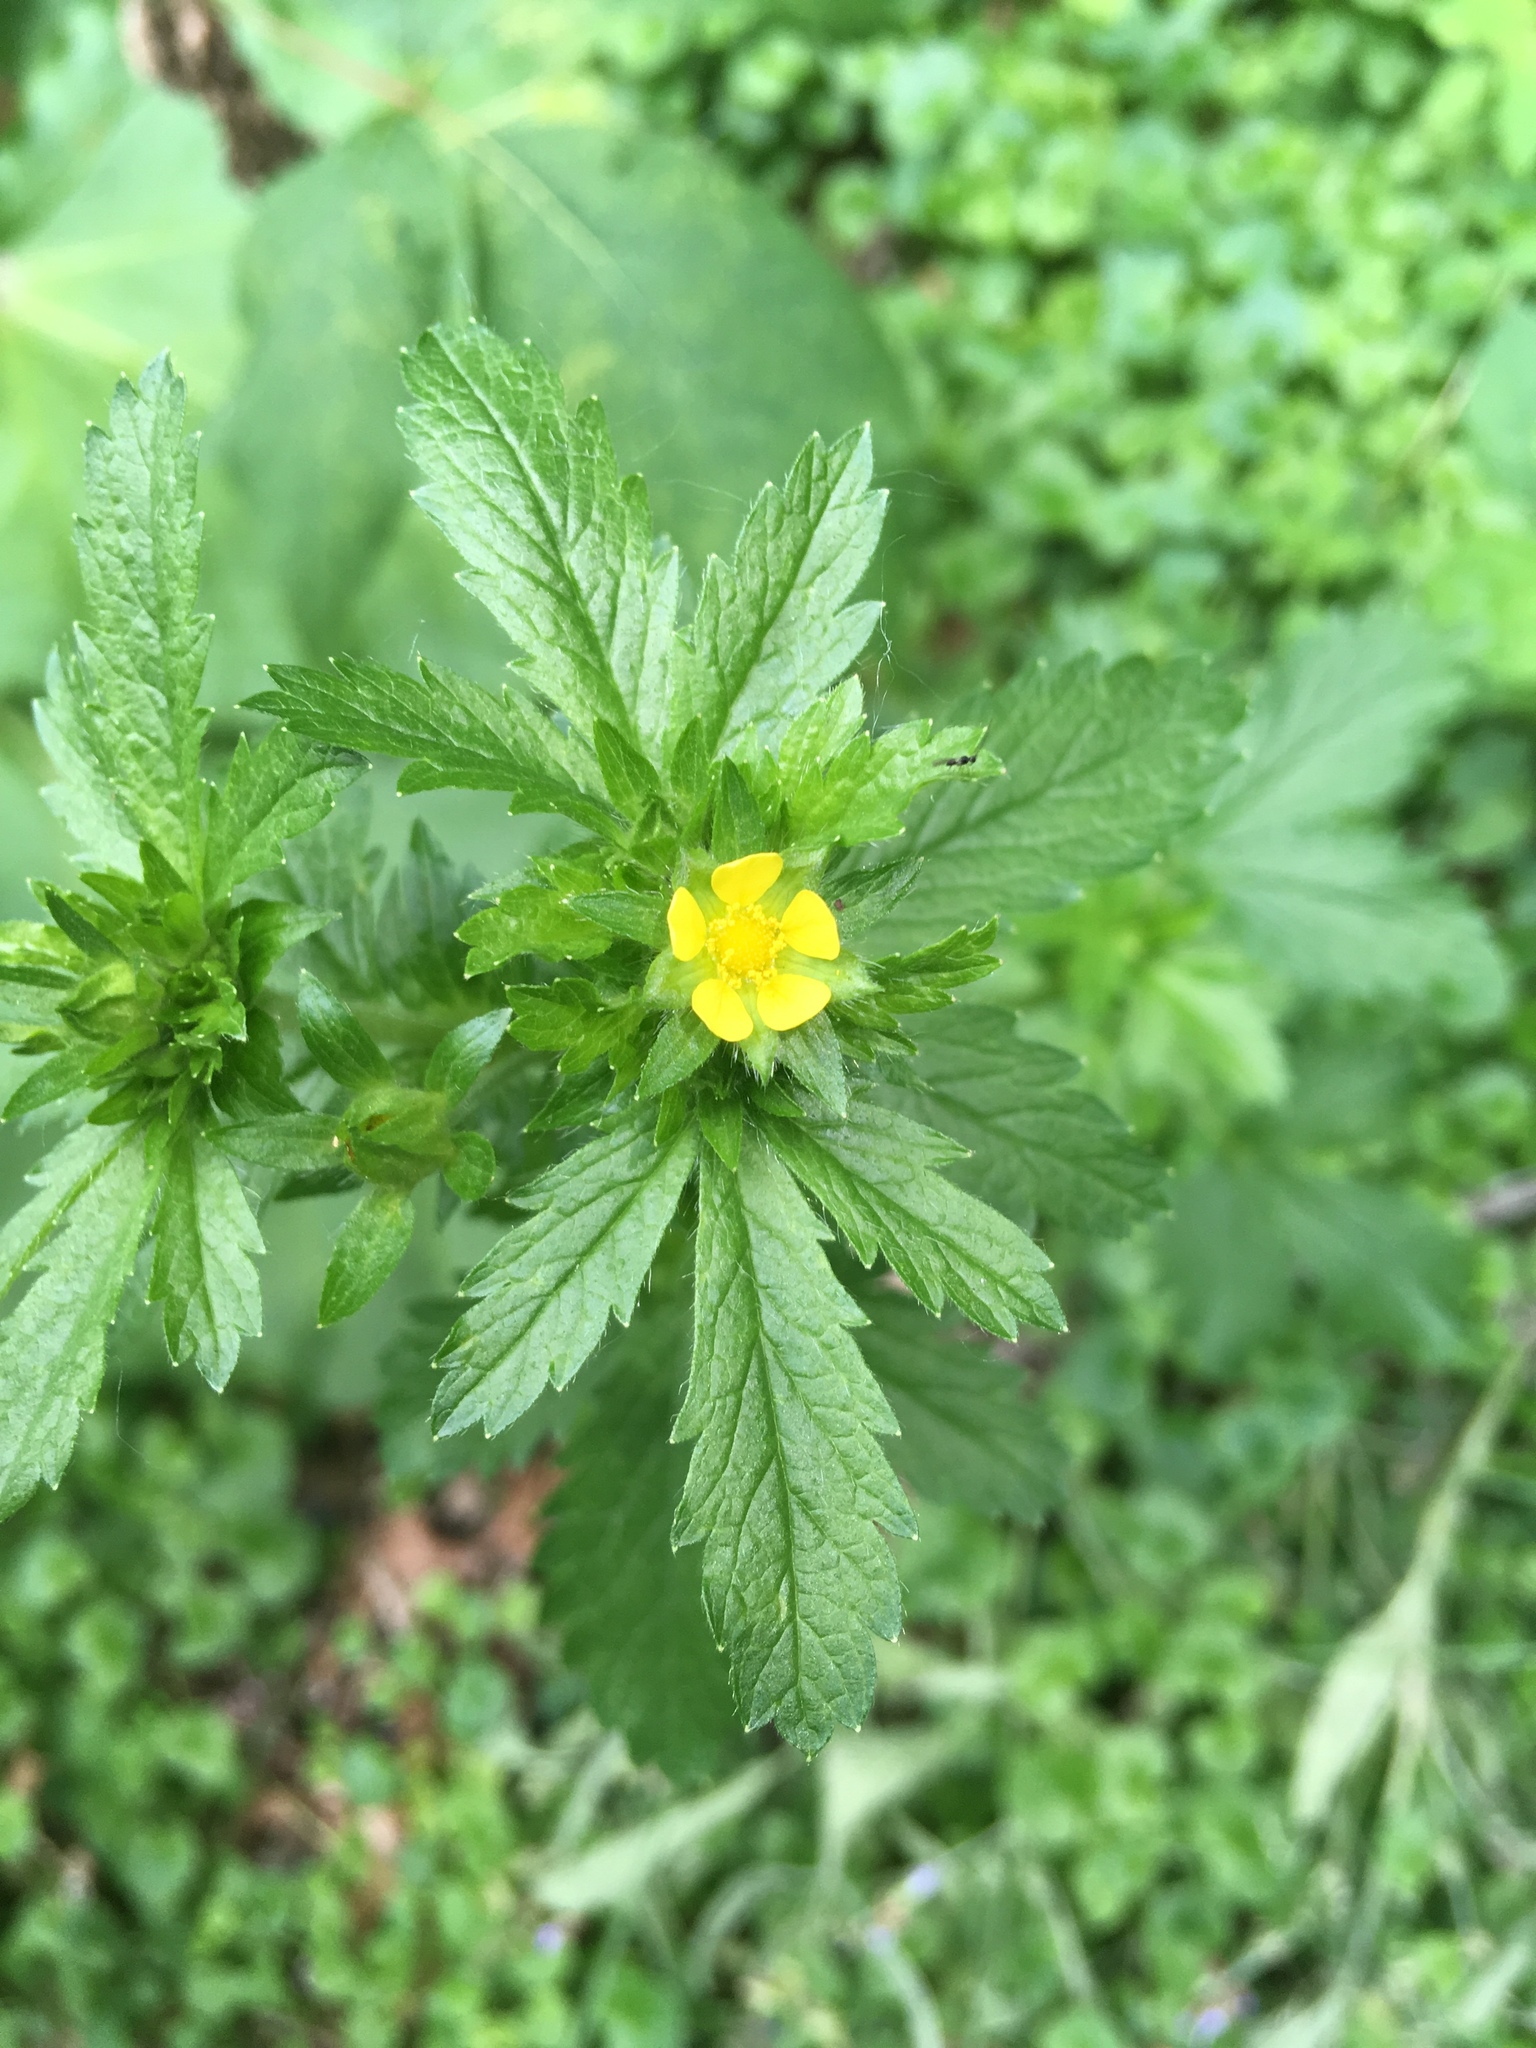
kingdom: Plantae
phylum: Tracheophyta
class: Magnoliopsida
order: Rosales
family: Rosaceae
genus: Potentilla
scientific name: Potentilla norvegica
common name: Ternate-leaved cinquefoil
